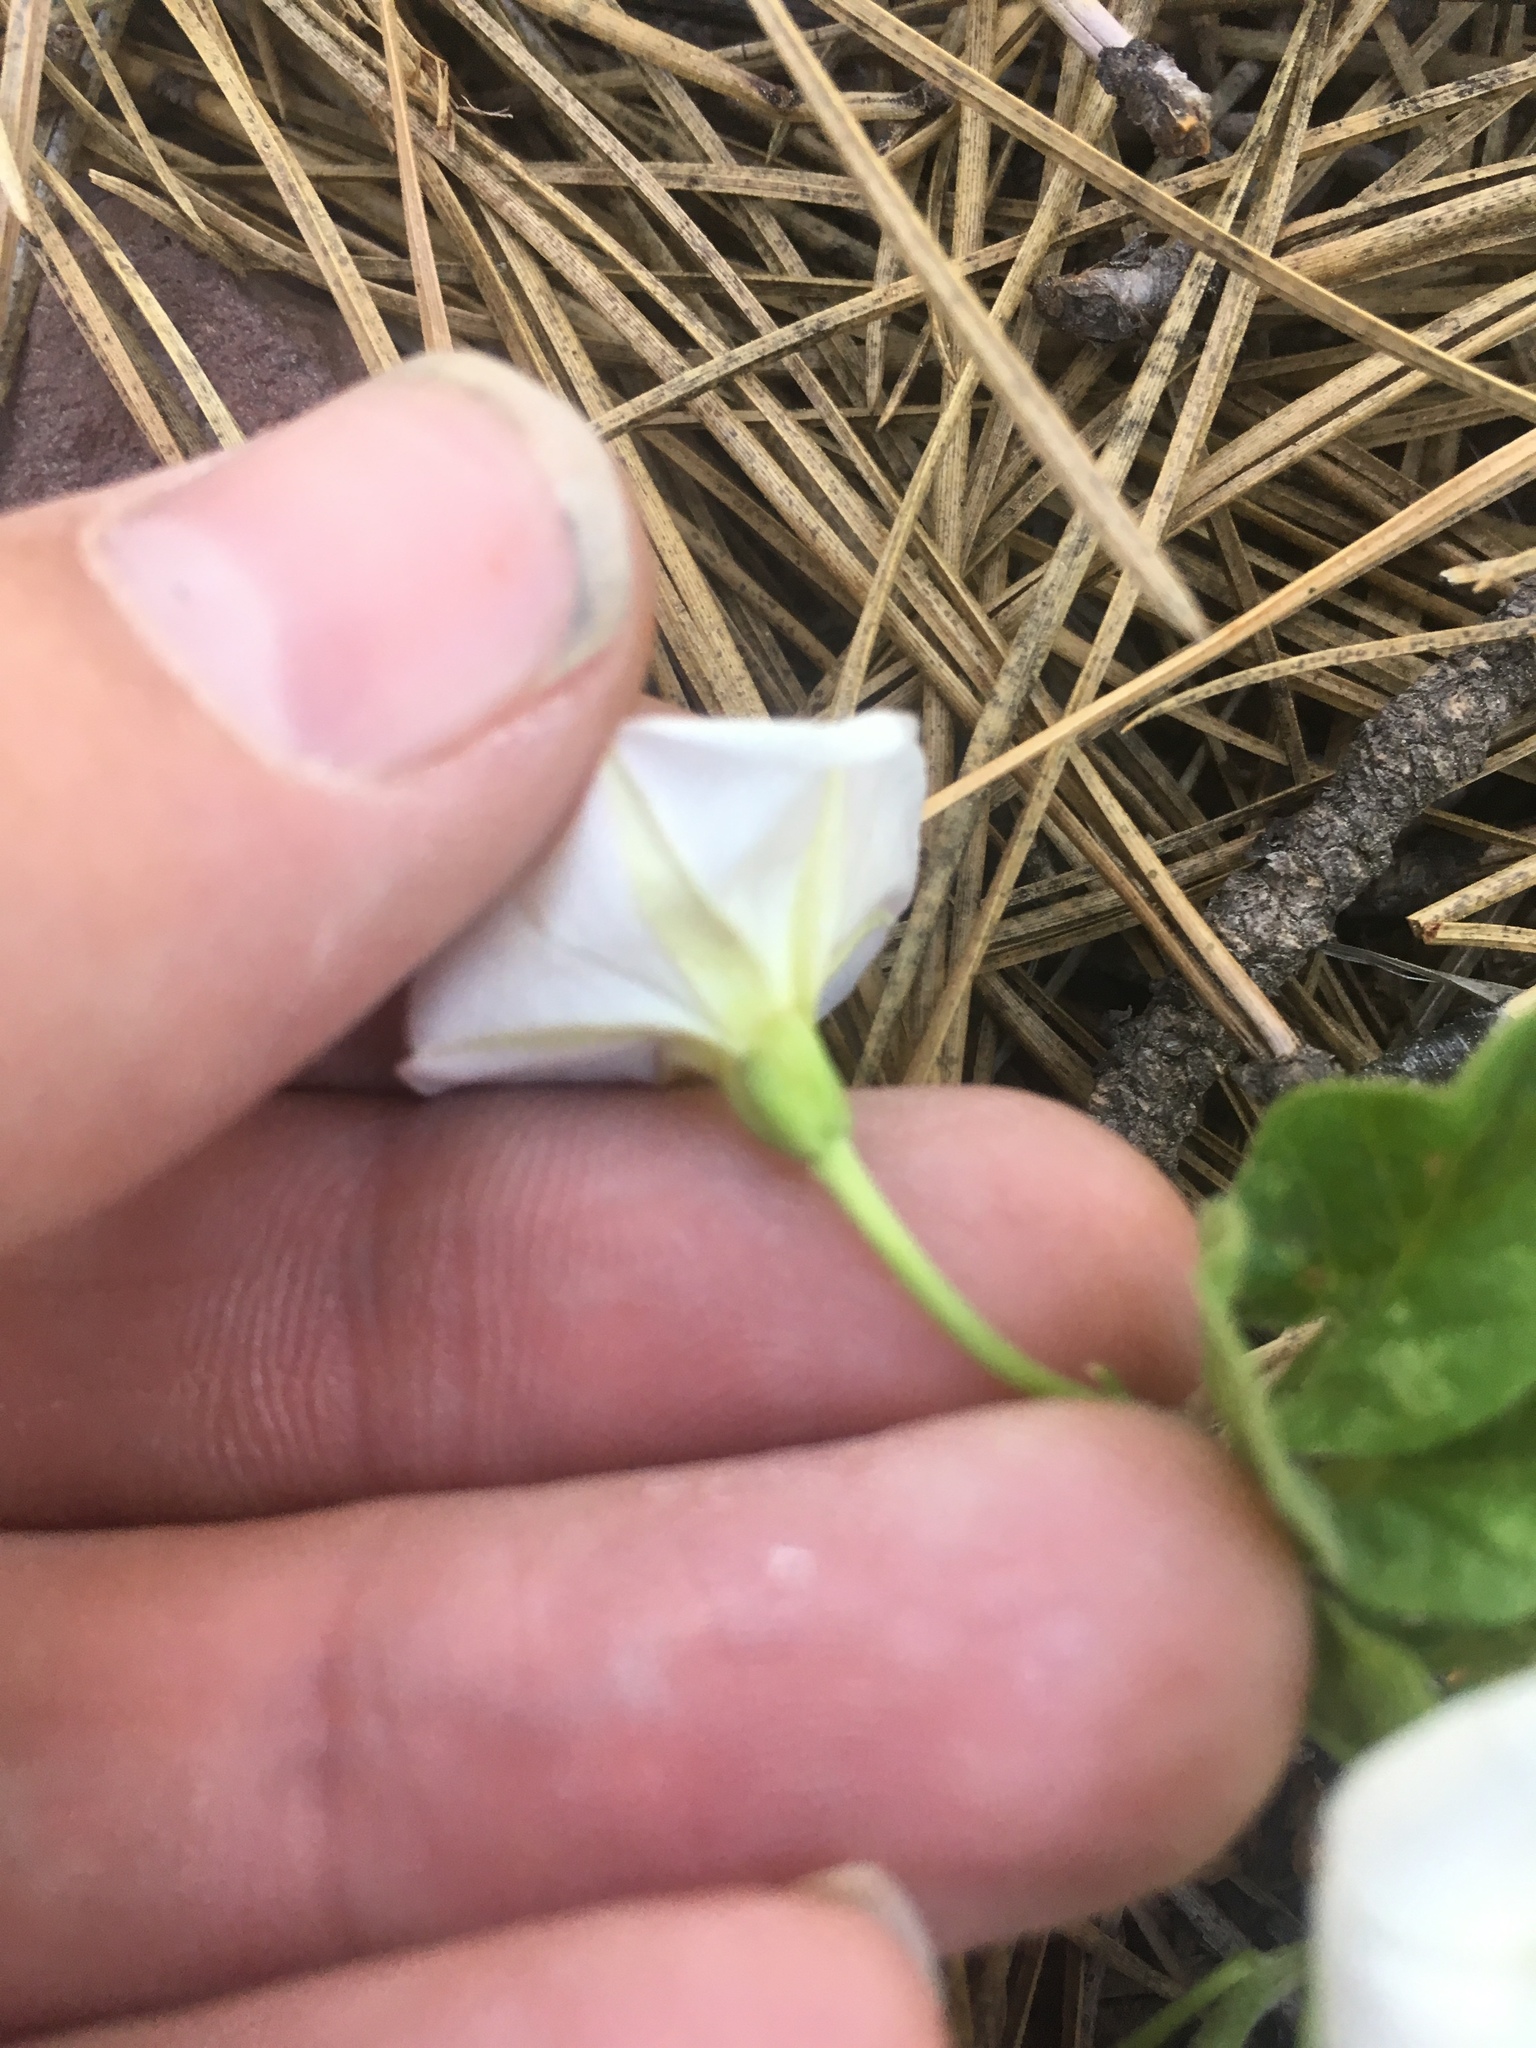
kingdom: Plantae
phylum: Tracheophyta
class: Magnoliopsida
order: Solanales
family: Convolvulaceae
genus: Convolvulus
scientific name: Convolvulus arvensis
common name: Field bindweed
